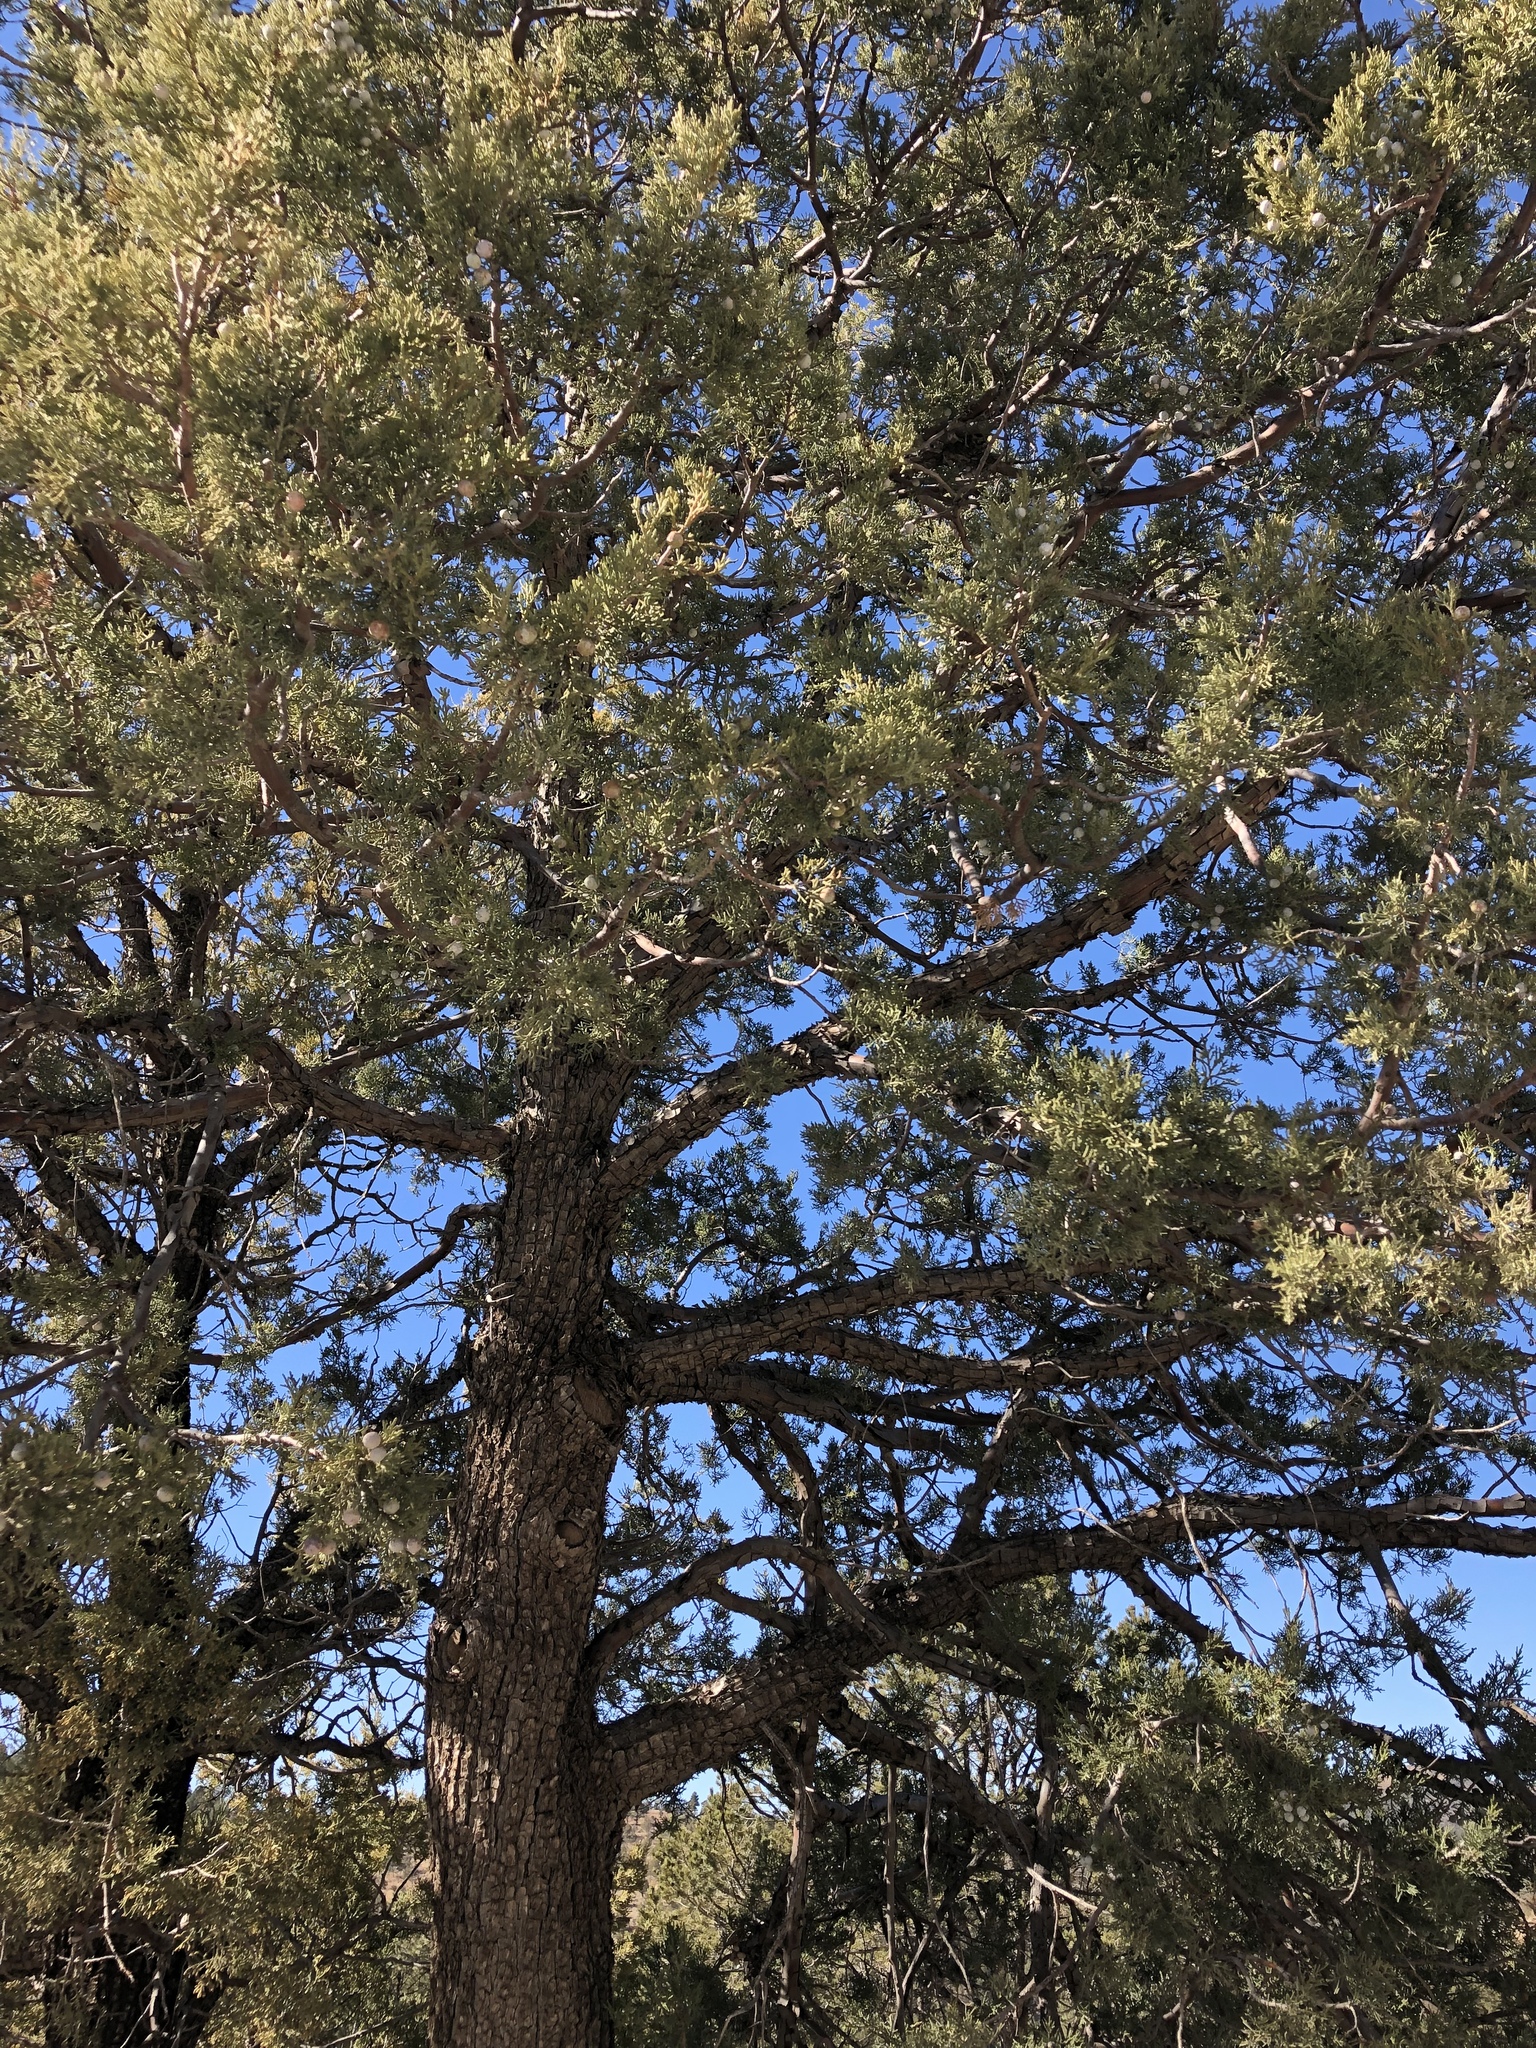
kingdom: Plantae
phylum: Tracheophyta
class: Pinopsida
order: Pinales
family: Cupressaceae
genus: Juniperus
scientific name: Juniperus deppeana
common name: Alligator juniper
